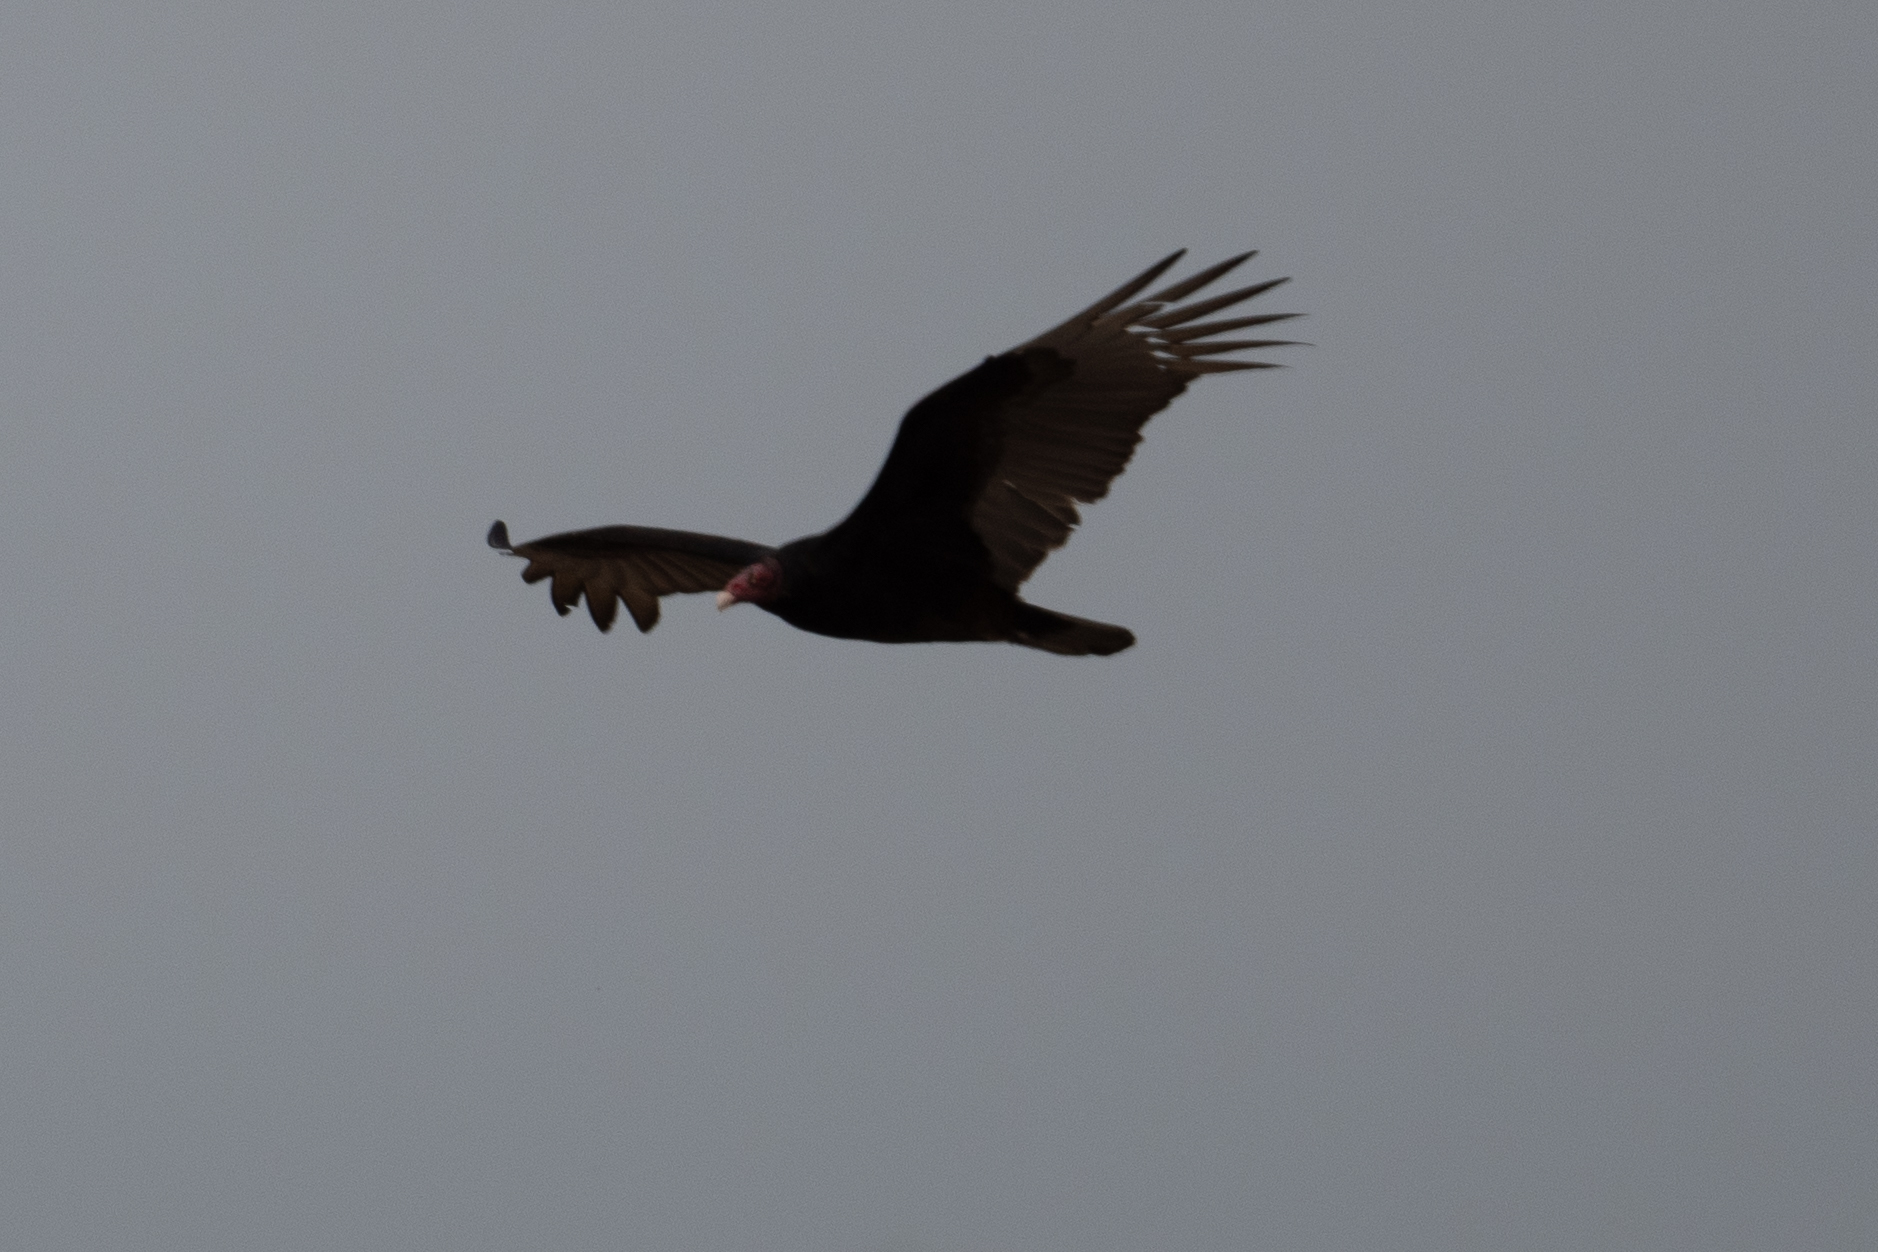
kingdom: Animalia
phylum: Chordata
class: Aves
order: Accipitriformes
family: Cathartidae
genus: Cathartes
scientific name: Cathartes aura
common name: Turkey vulture
